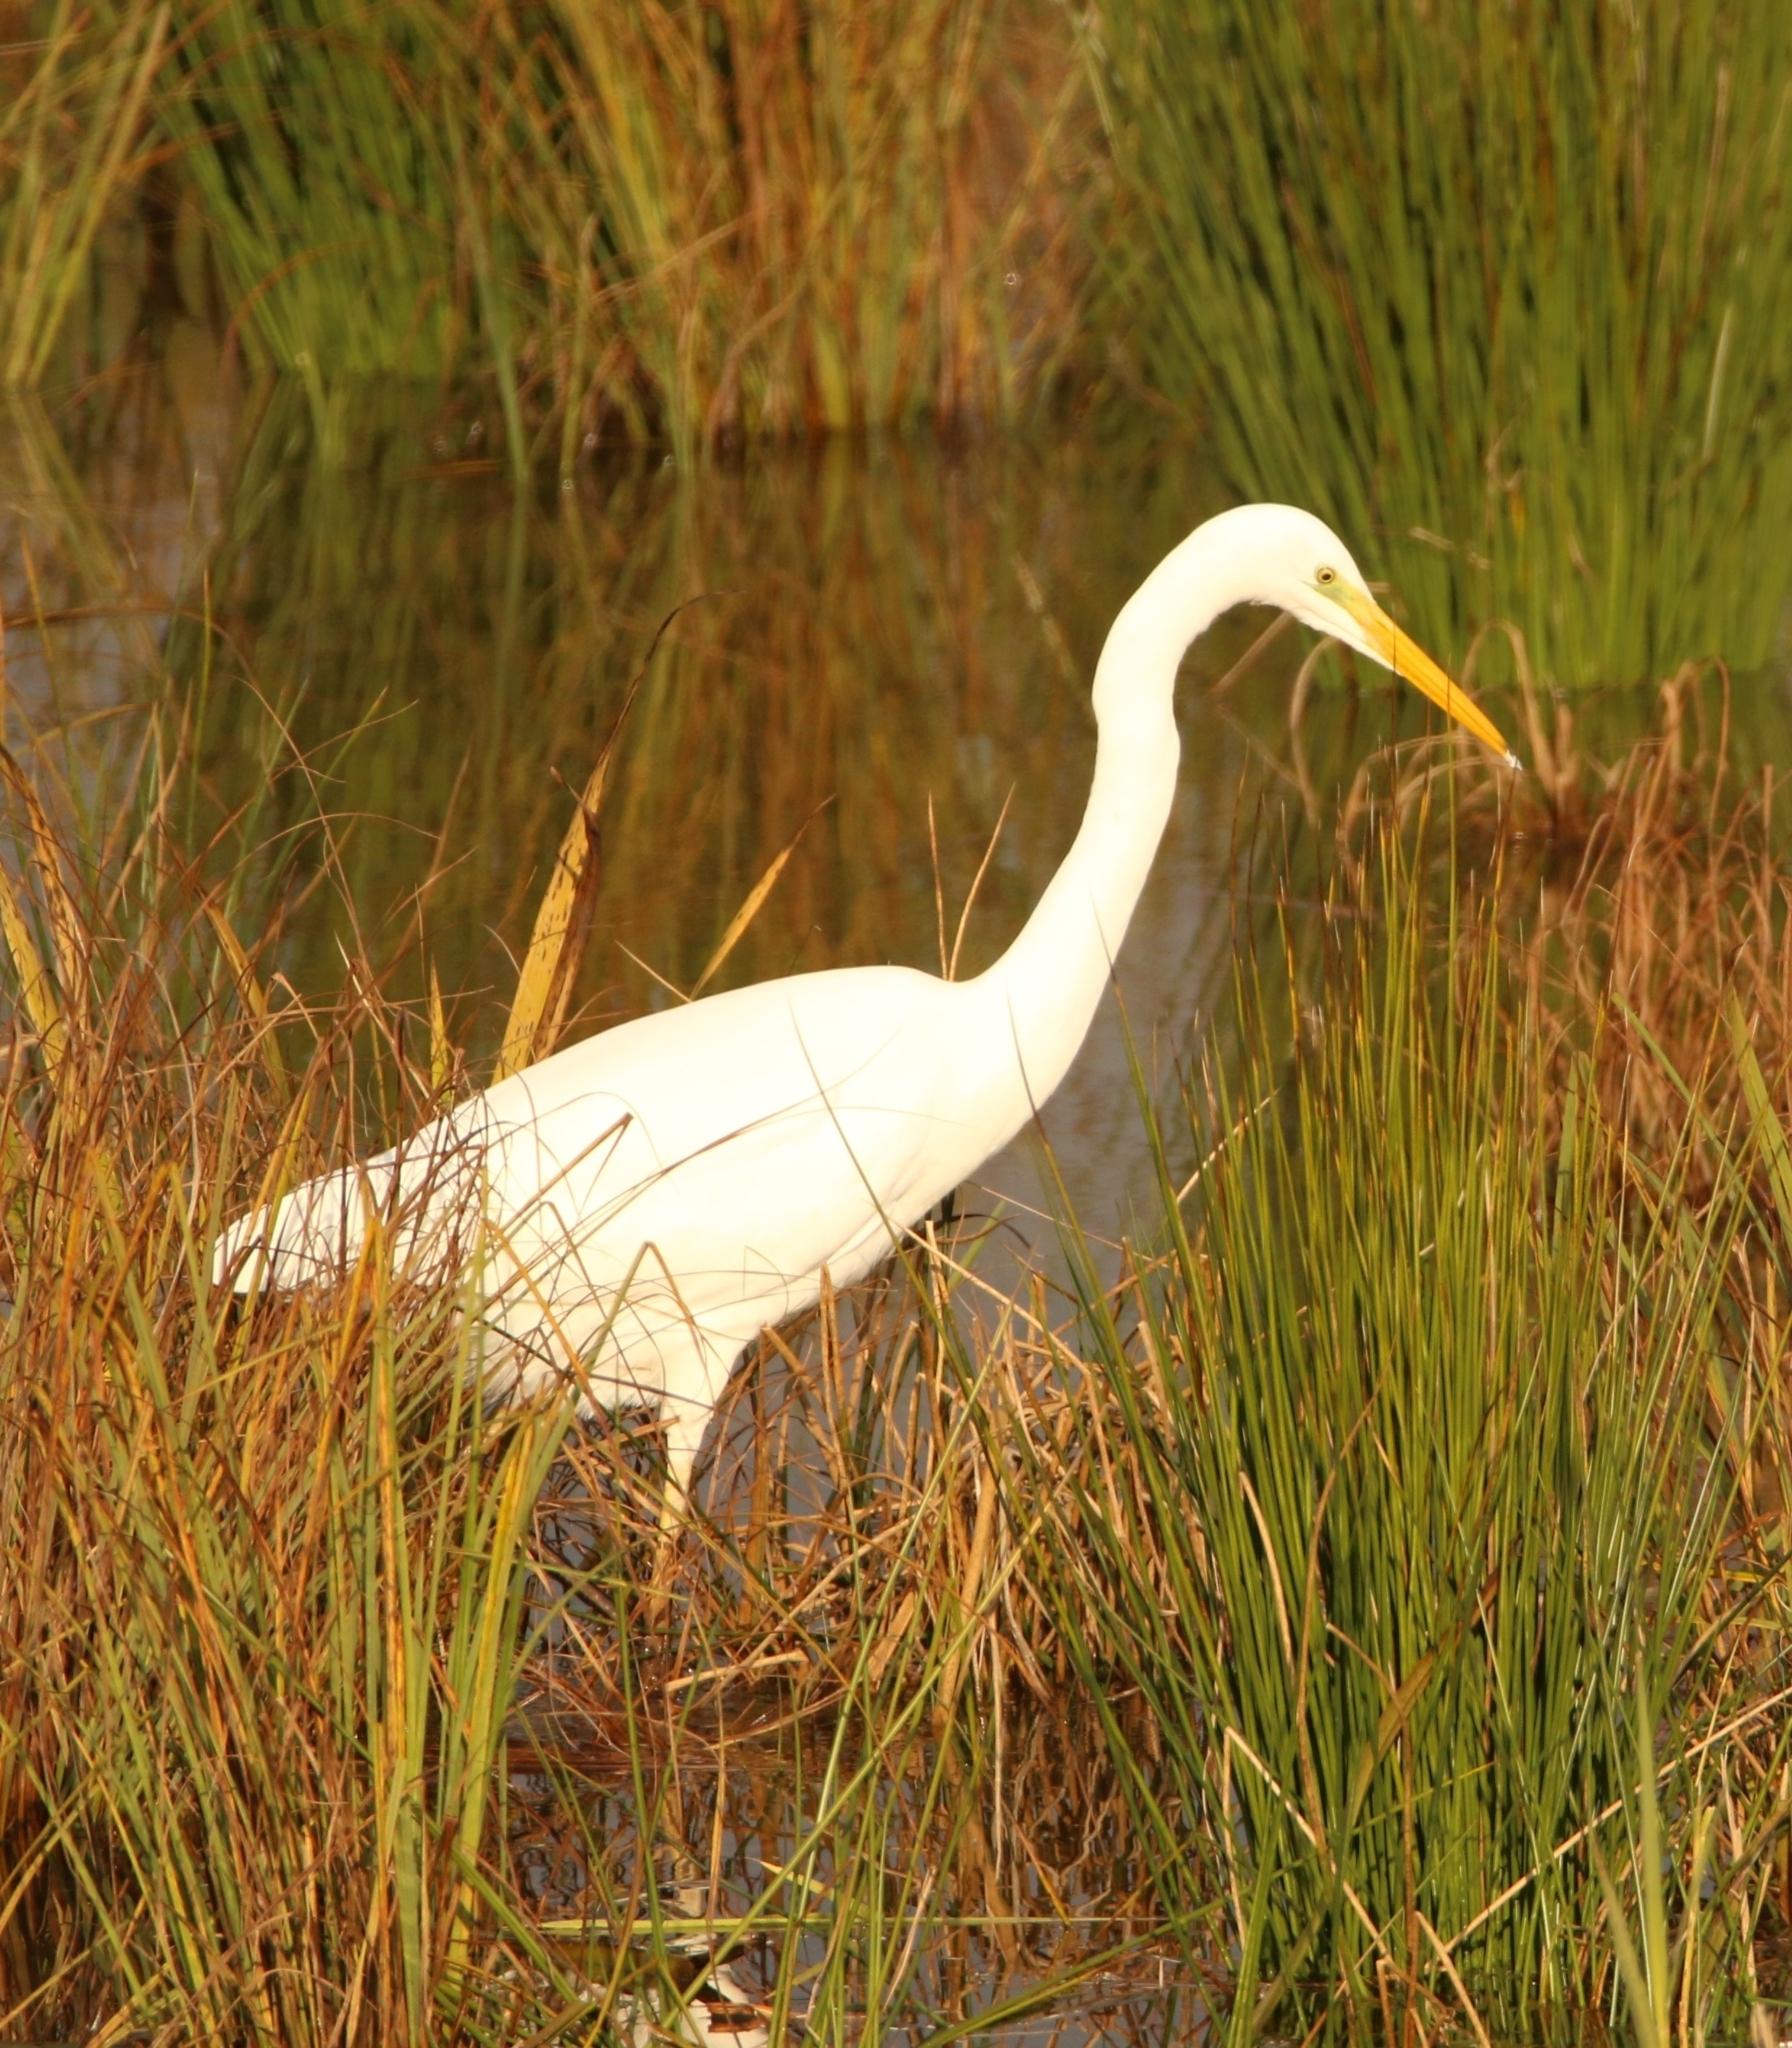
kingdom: Animalia
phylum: Chordata
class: Aves
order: Pelecaniformes
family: Ardeidae
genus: Ardea
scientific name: Ardea alba
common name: Great egret
